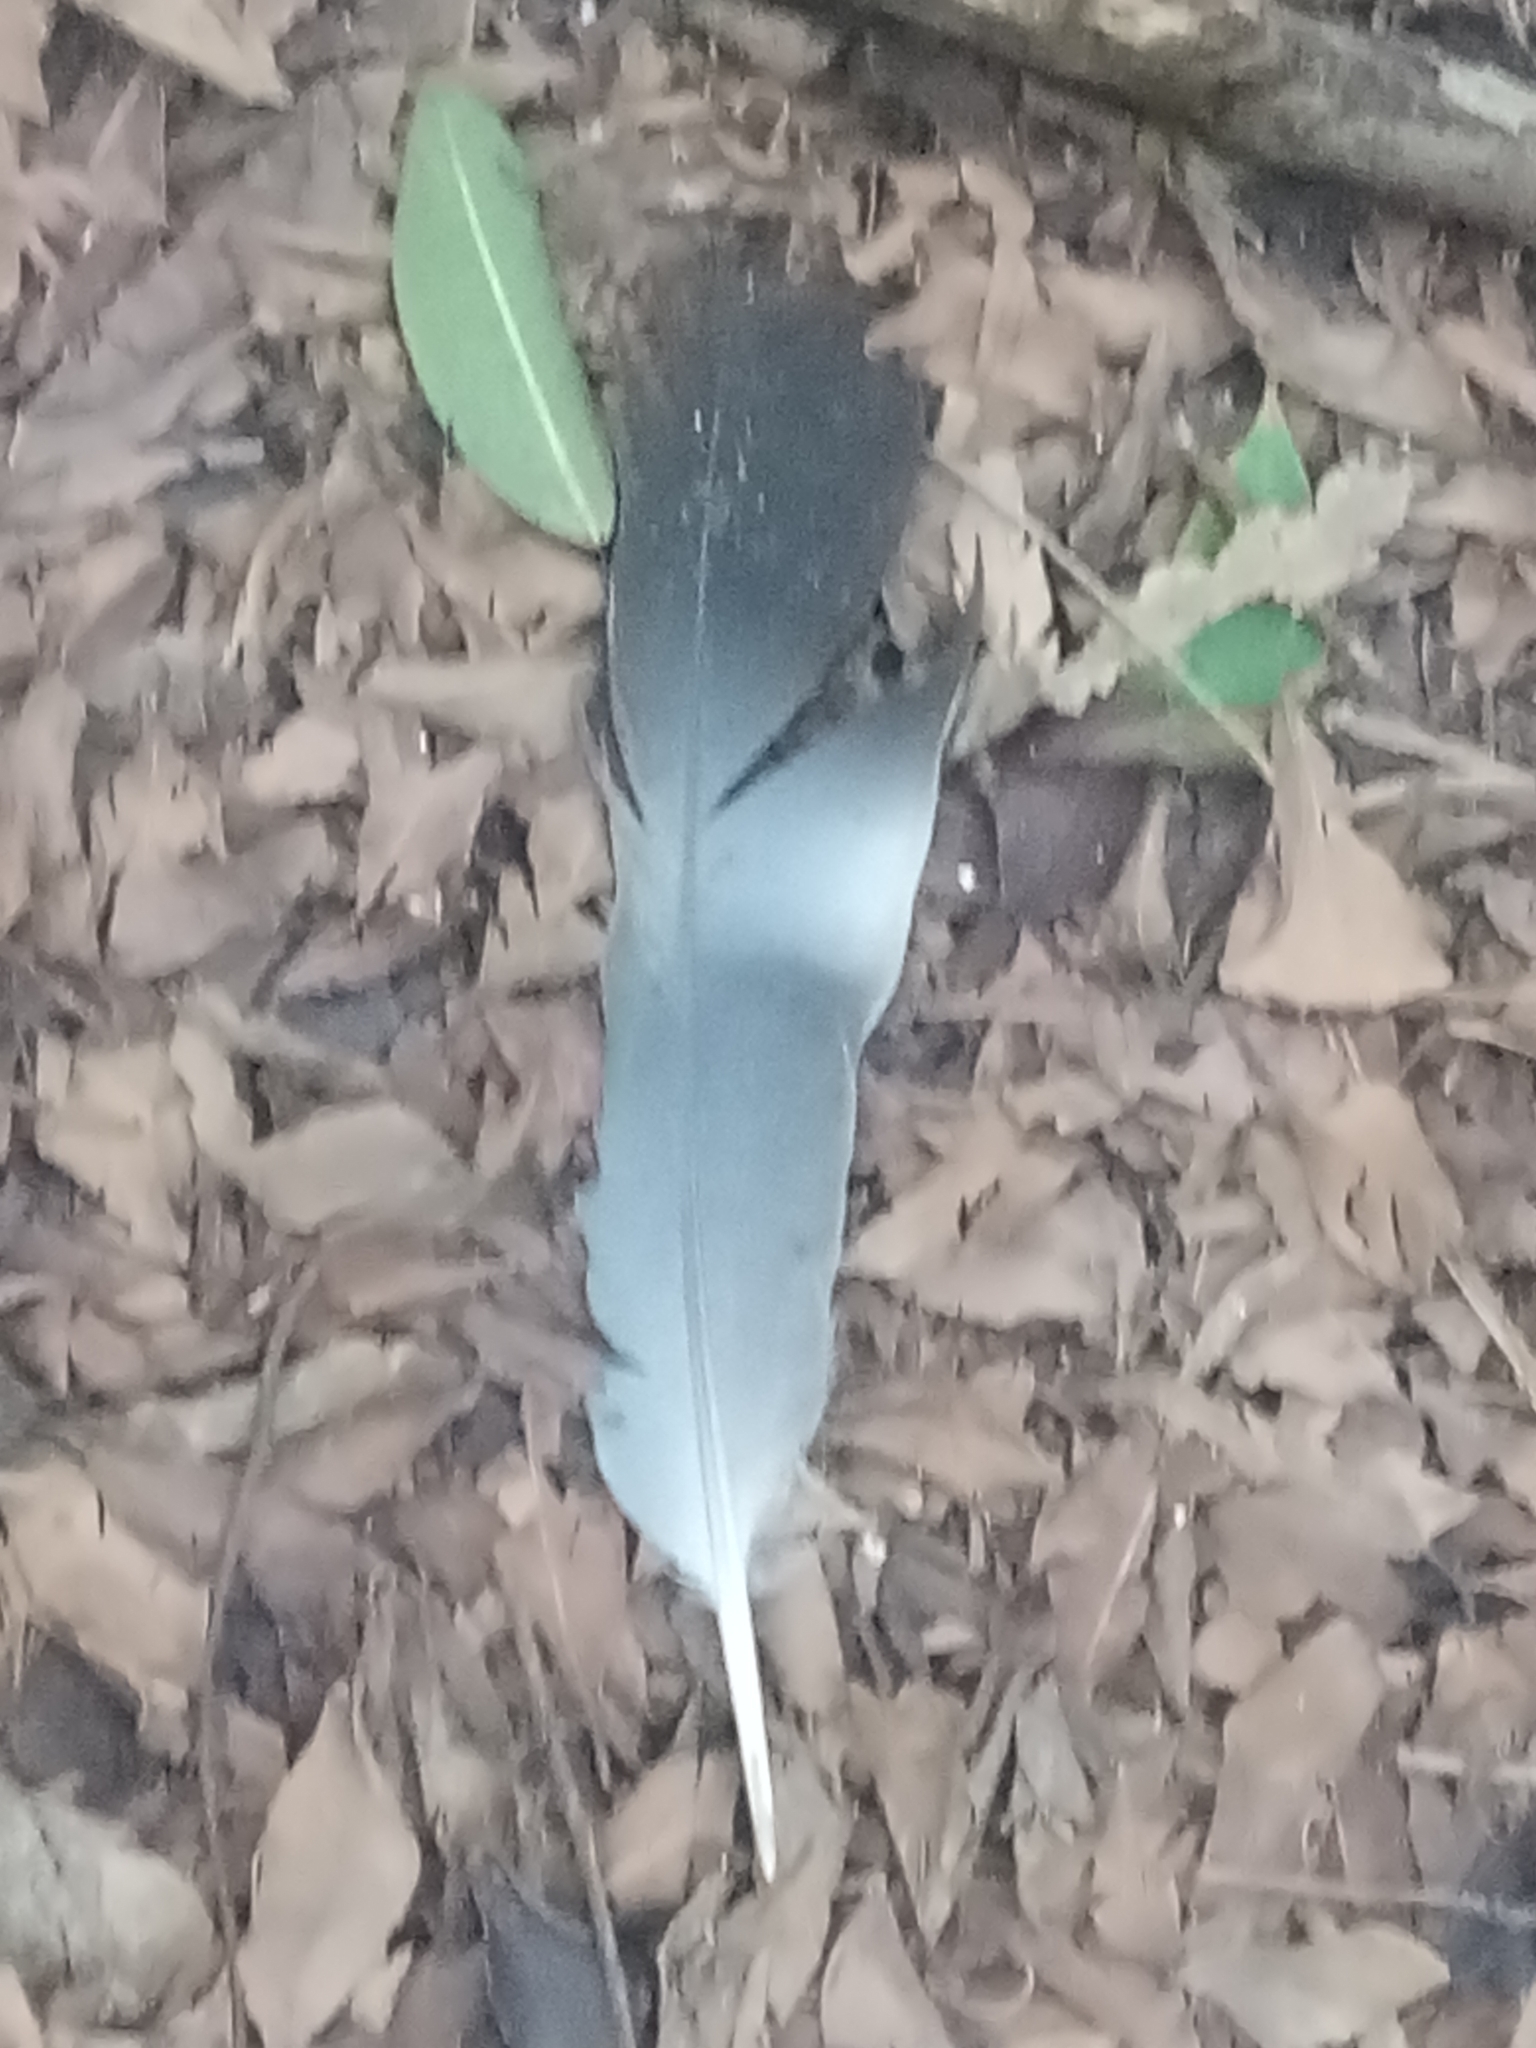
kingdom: Animalia
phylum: Chordata
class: Aves
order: Columbiformes
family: Columbidae
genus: Columba
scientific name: Columba palumbus
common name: Common wood pigeon
